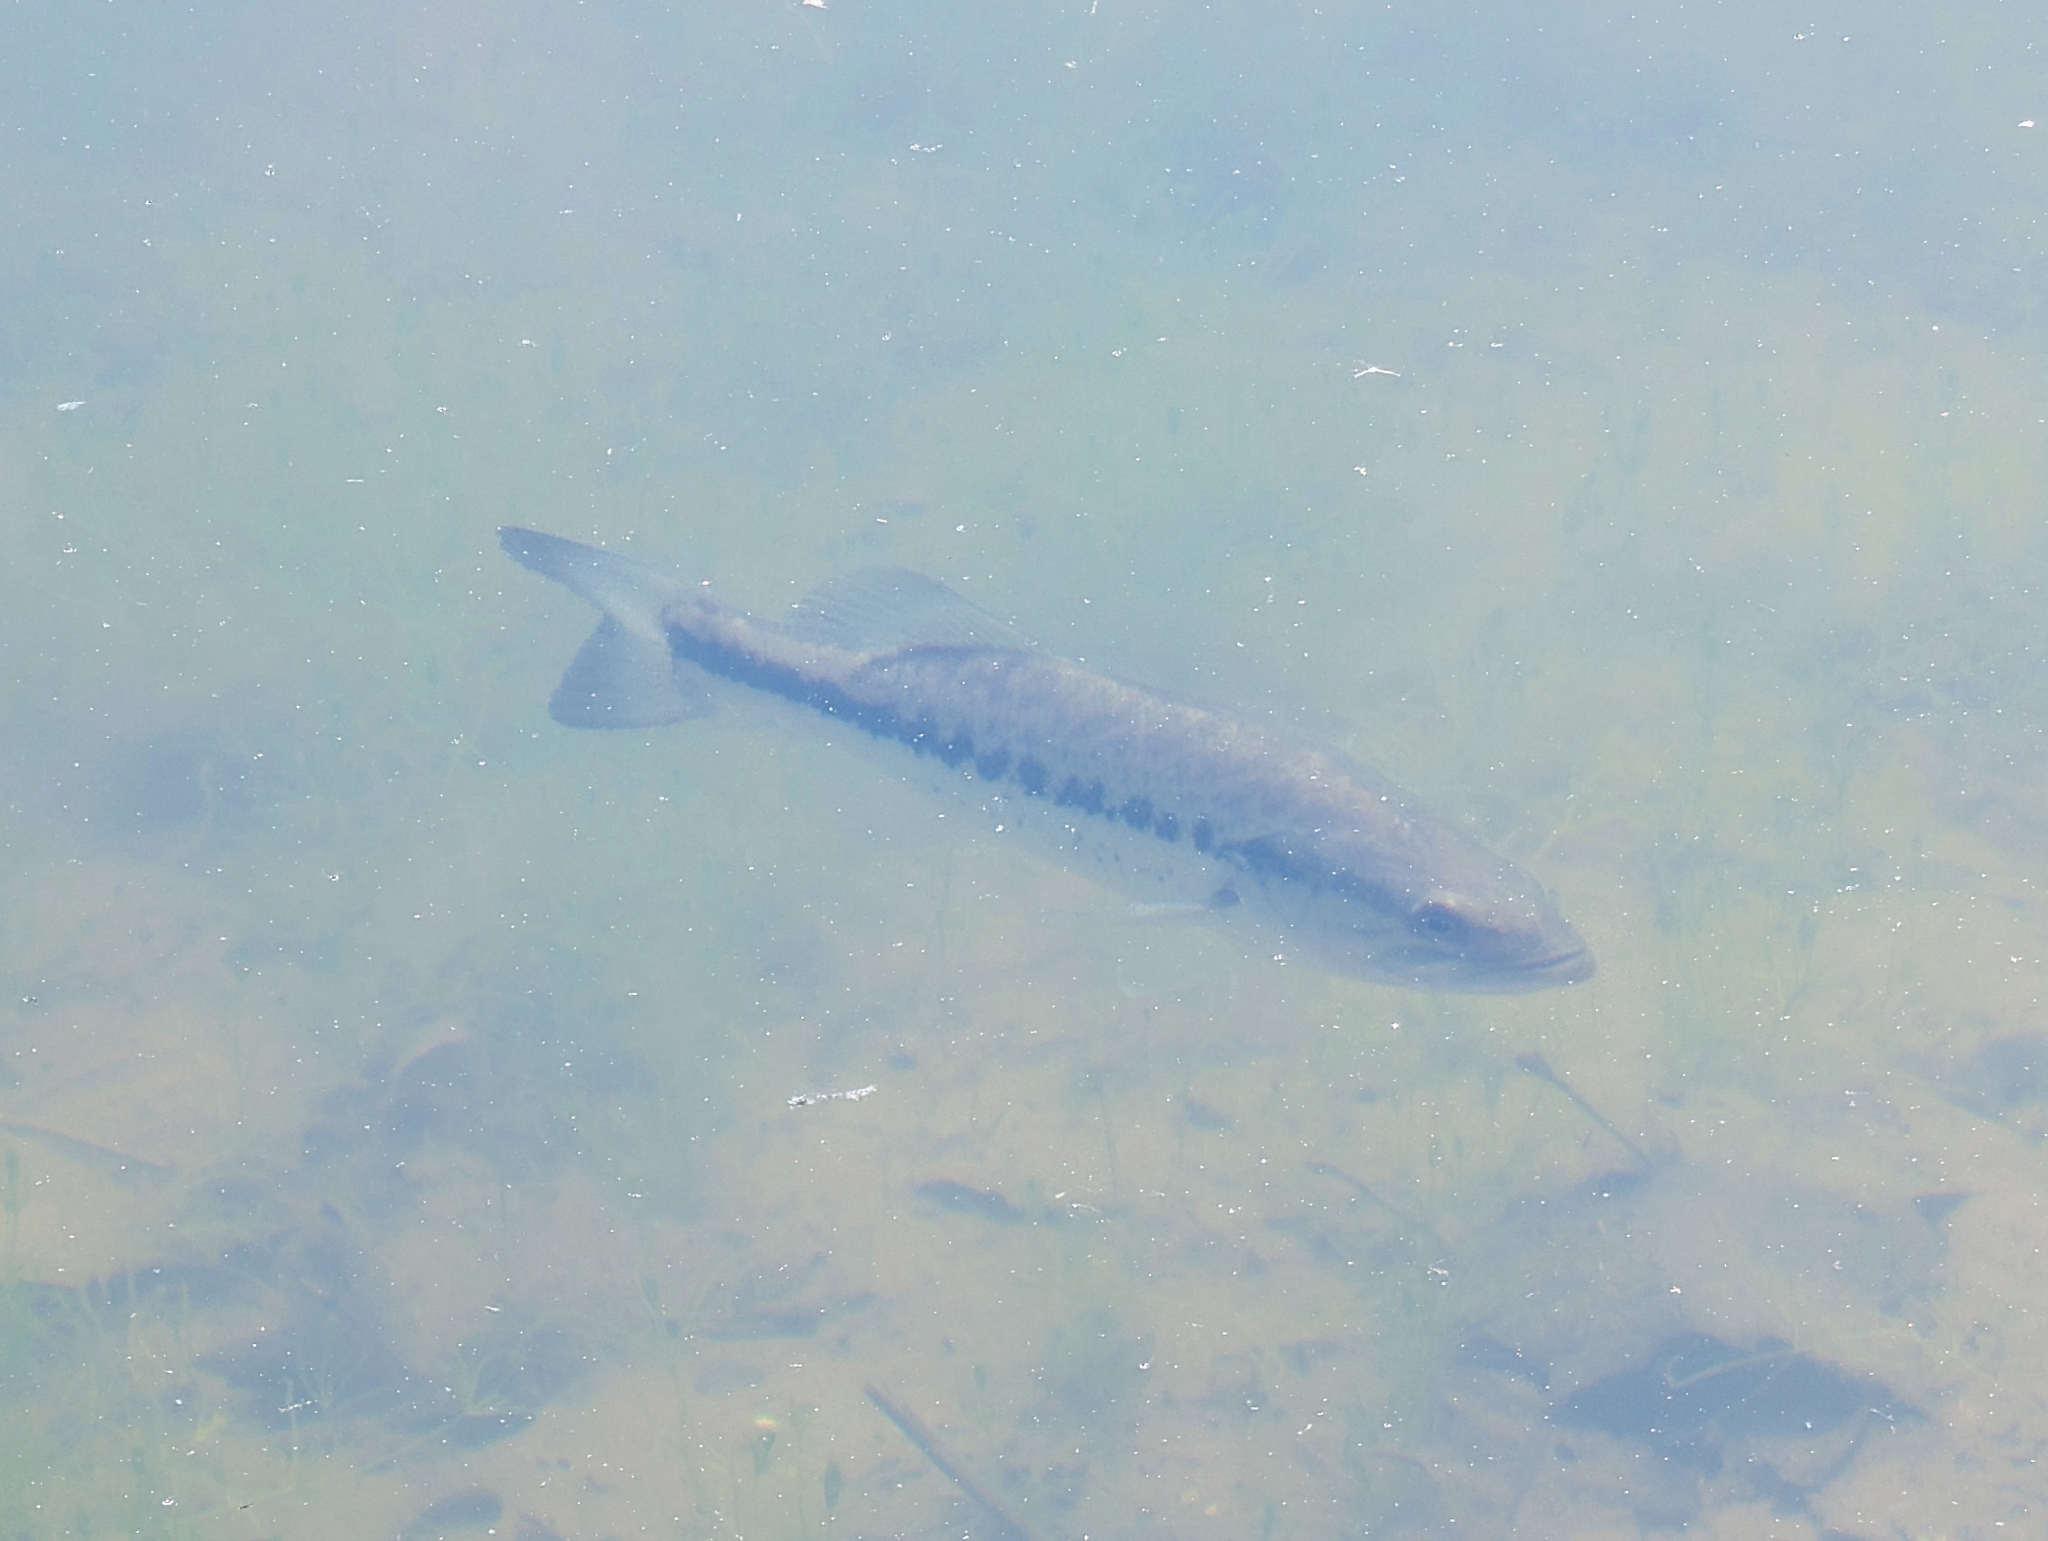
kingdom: Animalia
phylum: Chordata
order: Perciformes
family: Centrarchidae
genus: Micropterus
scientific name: Micropterus
